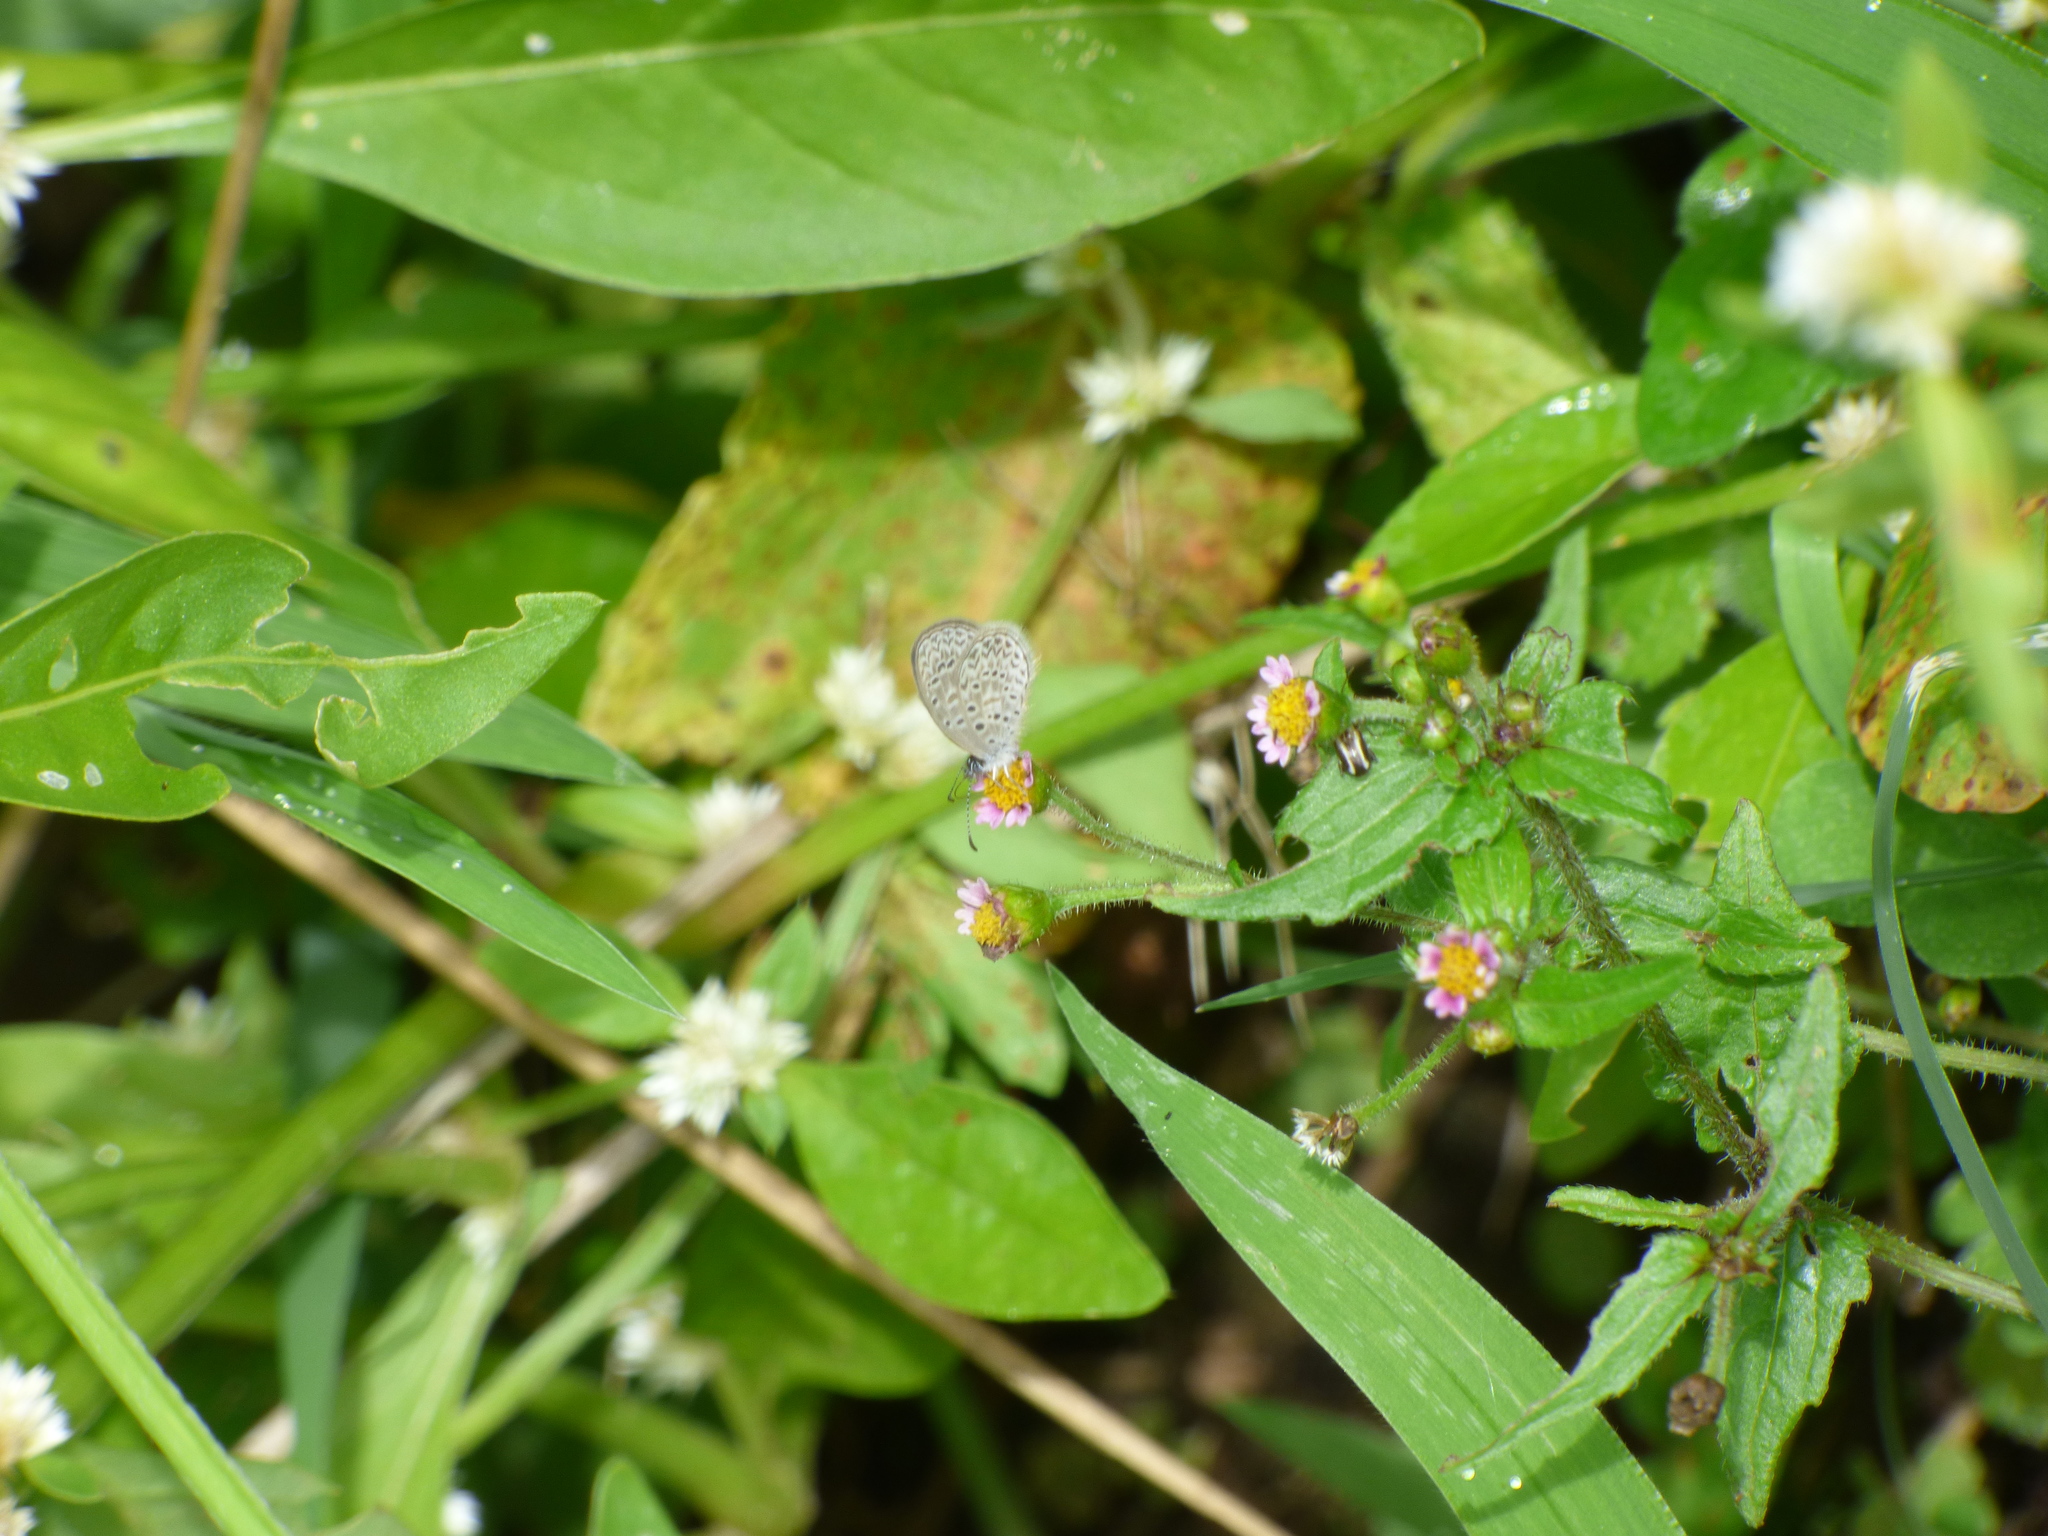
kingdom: Animalia
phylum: Arthropoda
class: Insecta
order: Lepidoptera
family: Lycaenidae
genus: Lycaena
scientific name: Lycaena cyna
